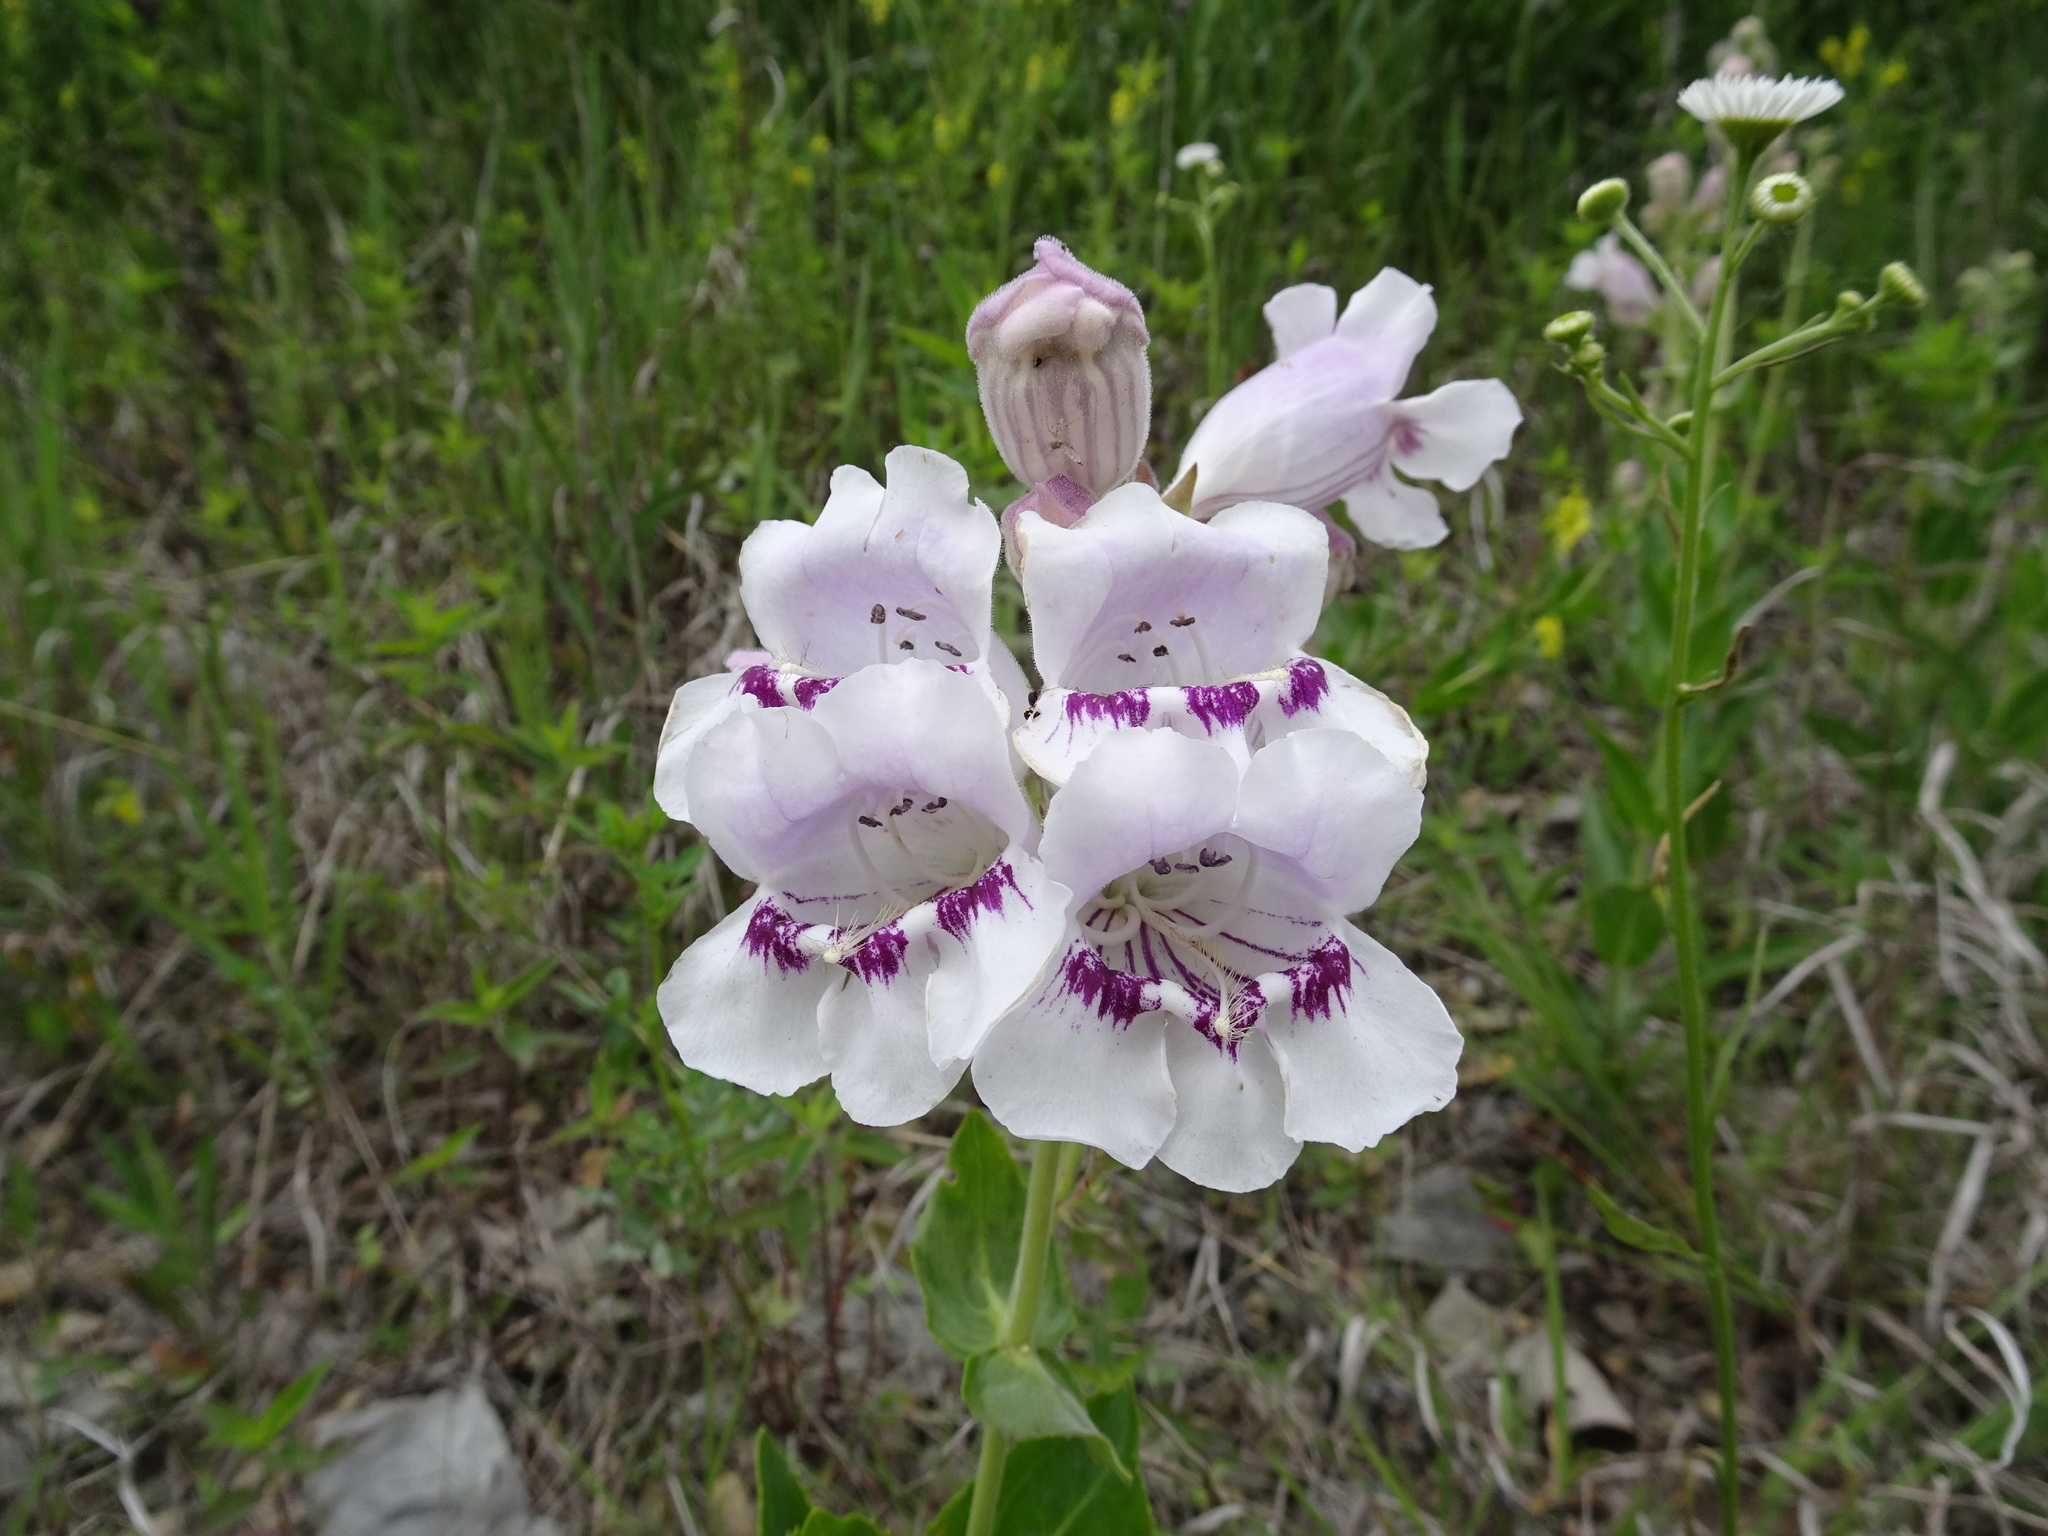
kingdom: Plantae
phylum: Tracheophyta
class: Magnoliopsida
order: Lamiales
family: Plantaginaceae
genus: Penstemon
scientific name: Penstemon cobaea
